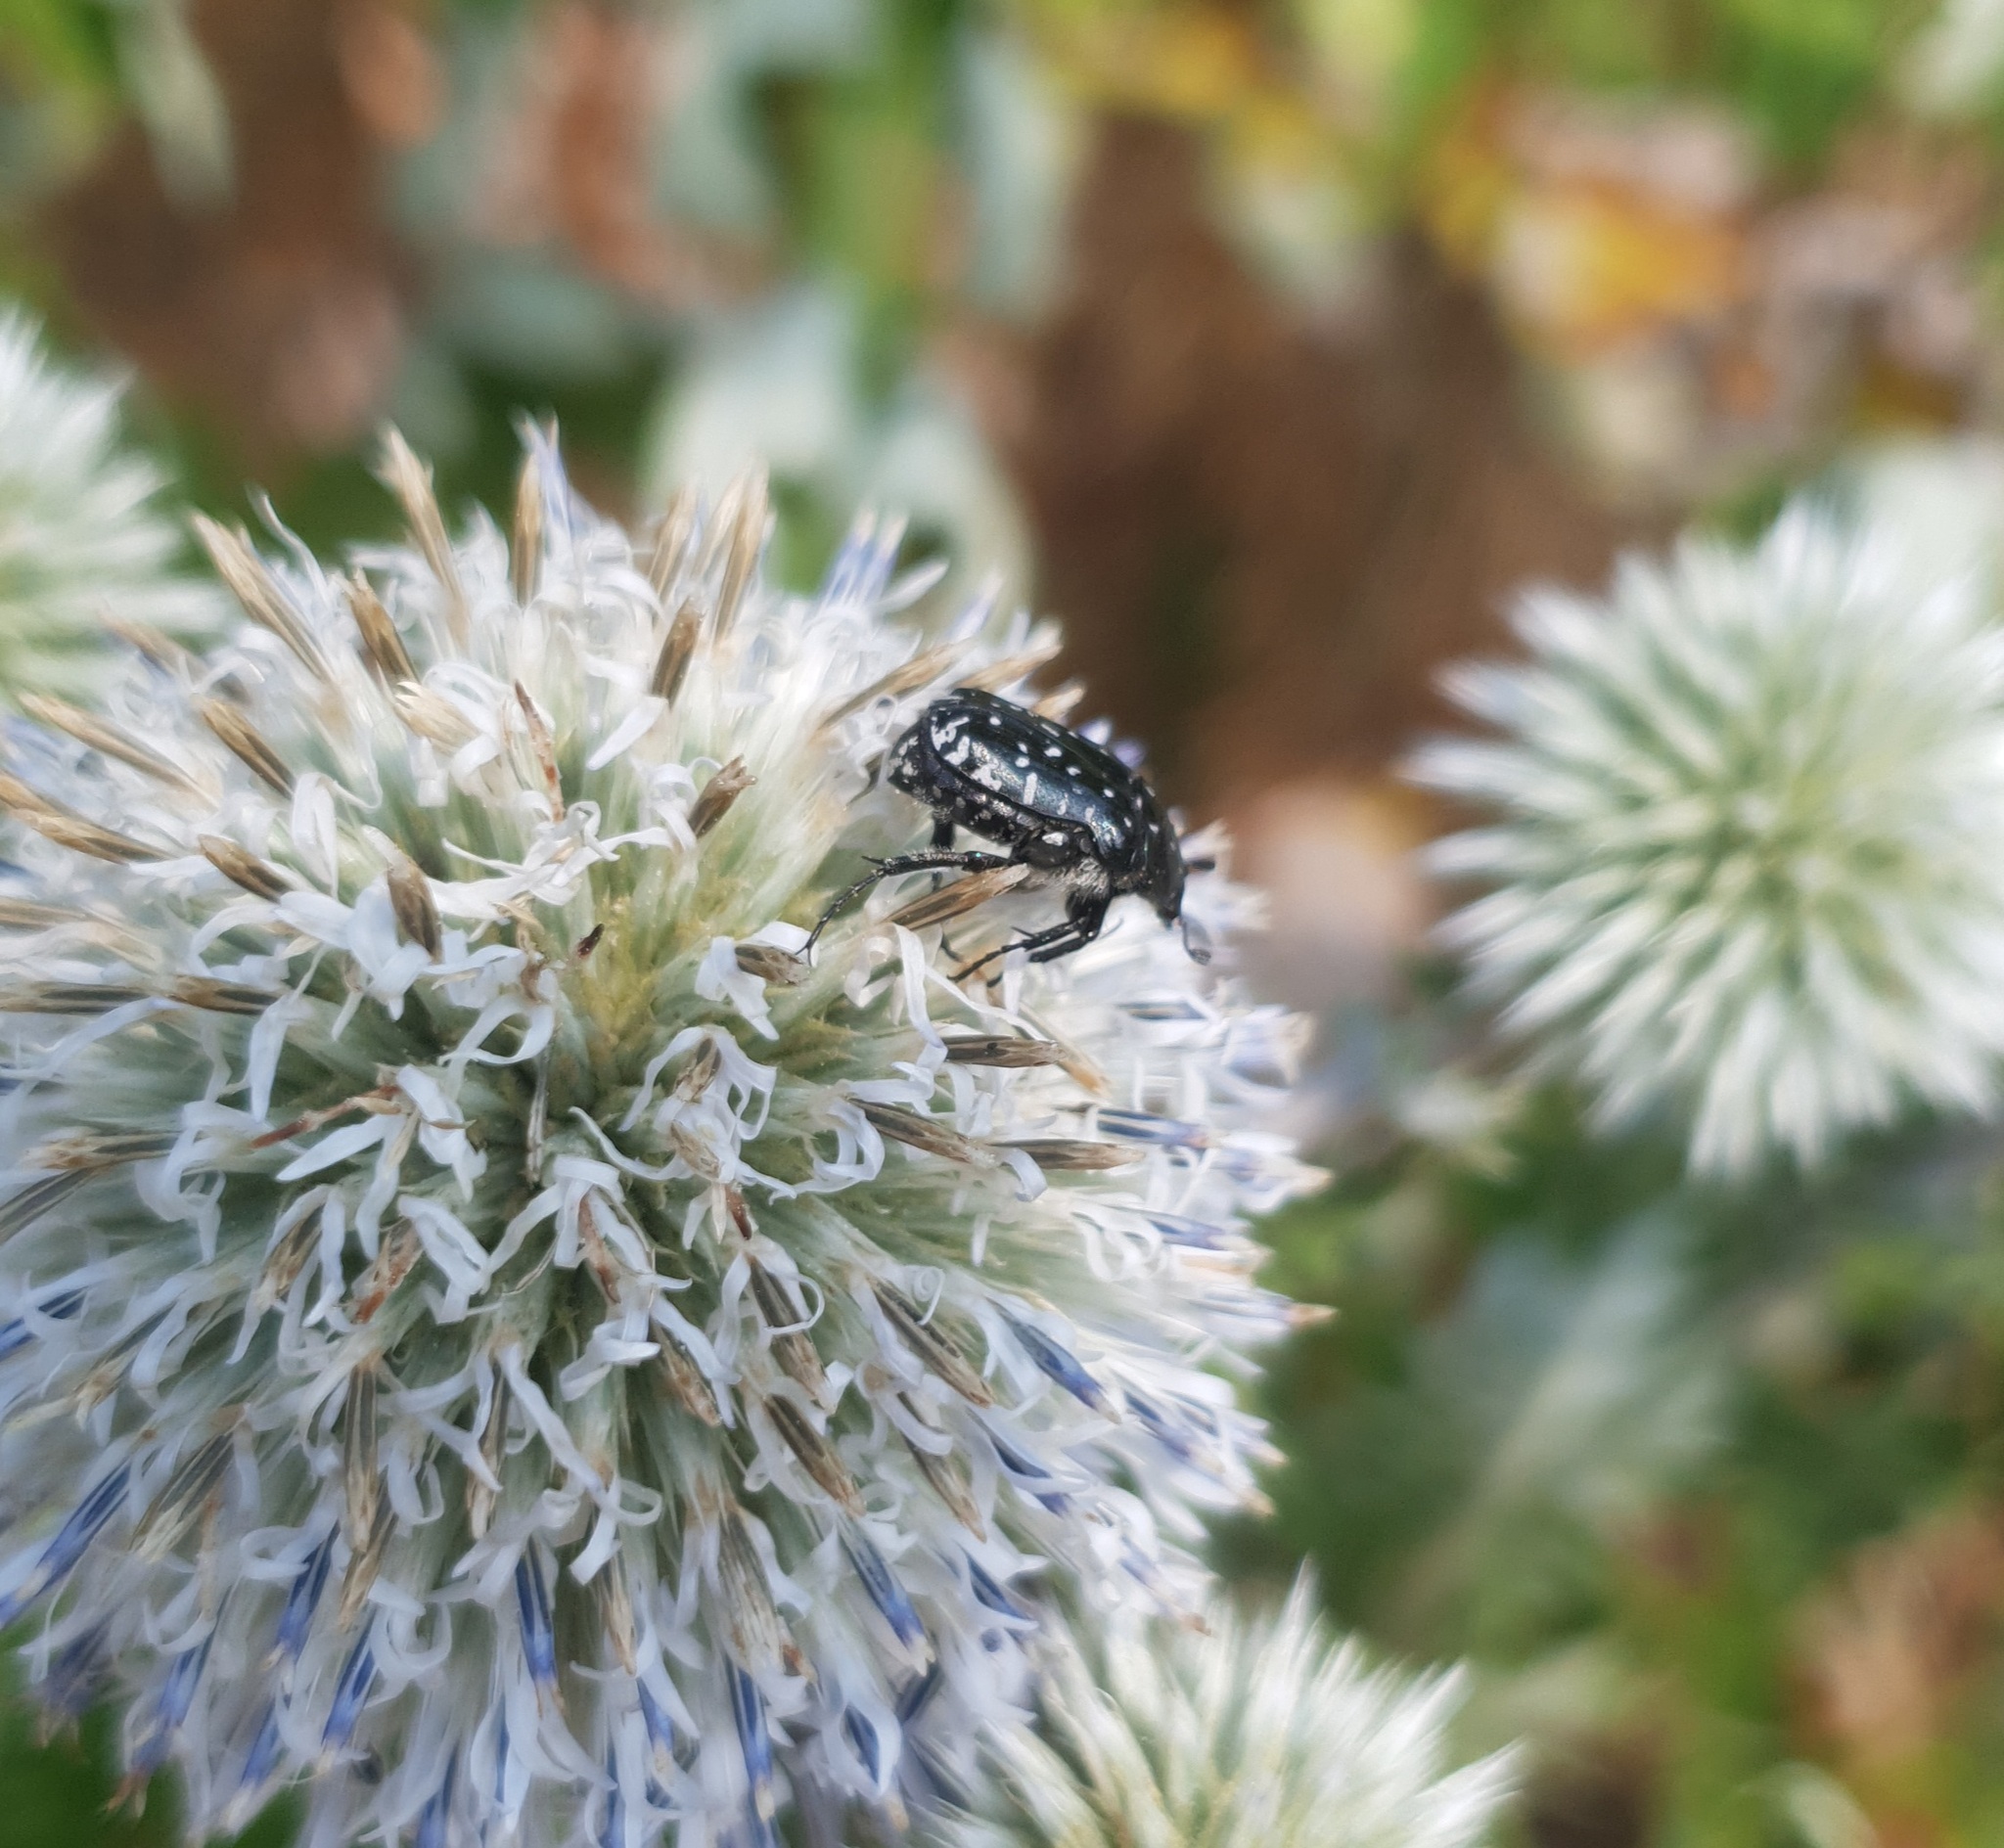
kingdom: Animalia
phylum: Arthropoda
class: Insecta
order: Coleoptera
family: Scarabaeidae
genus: Oxythyrea
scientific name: Oxythyrea funesta
